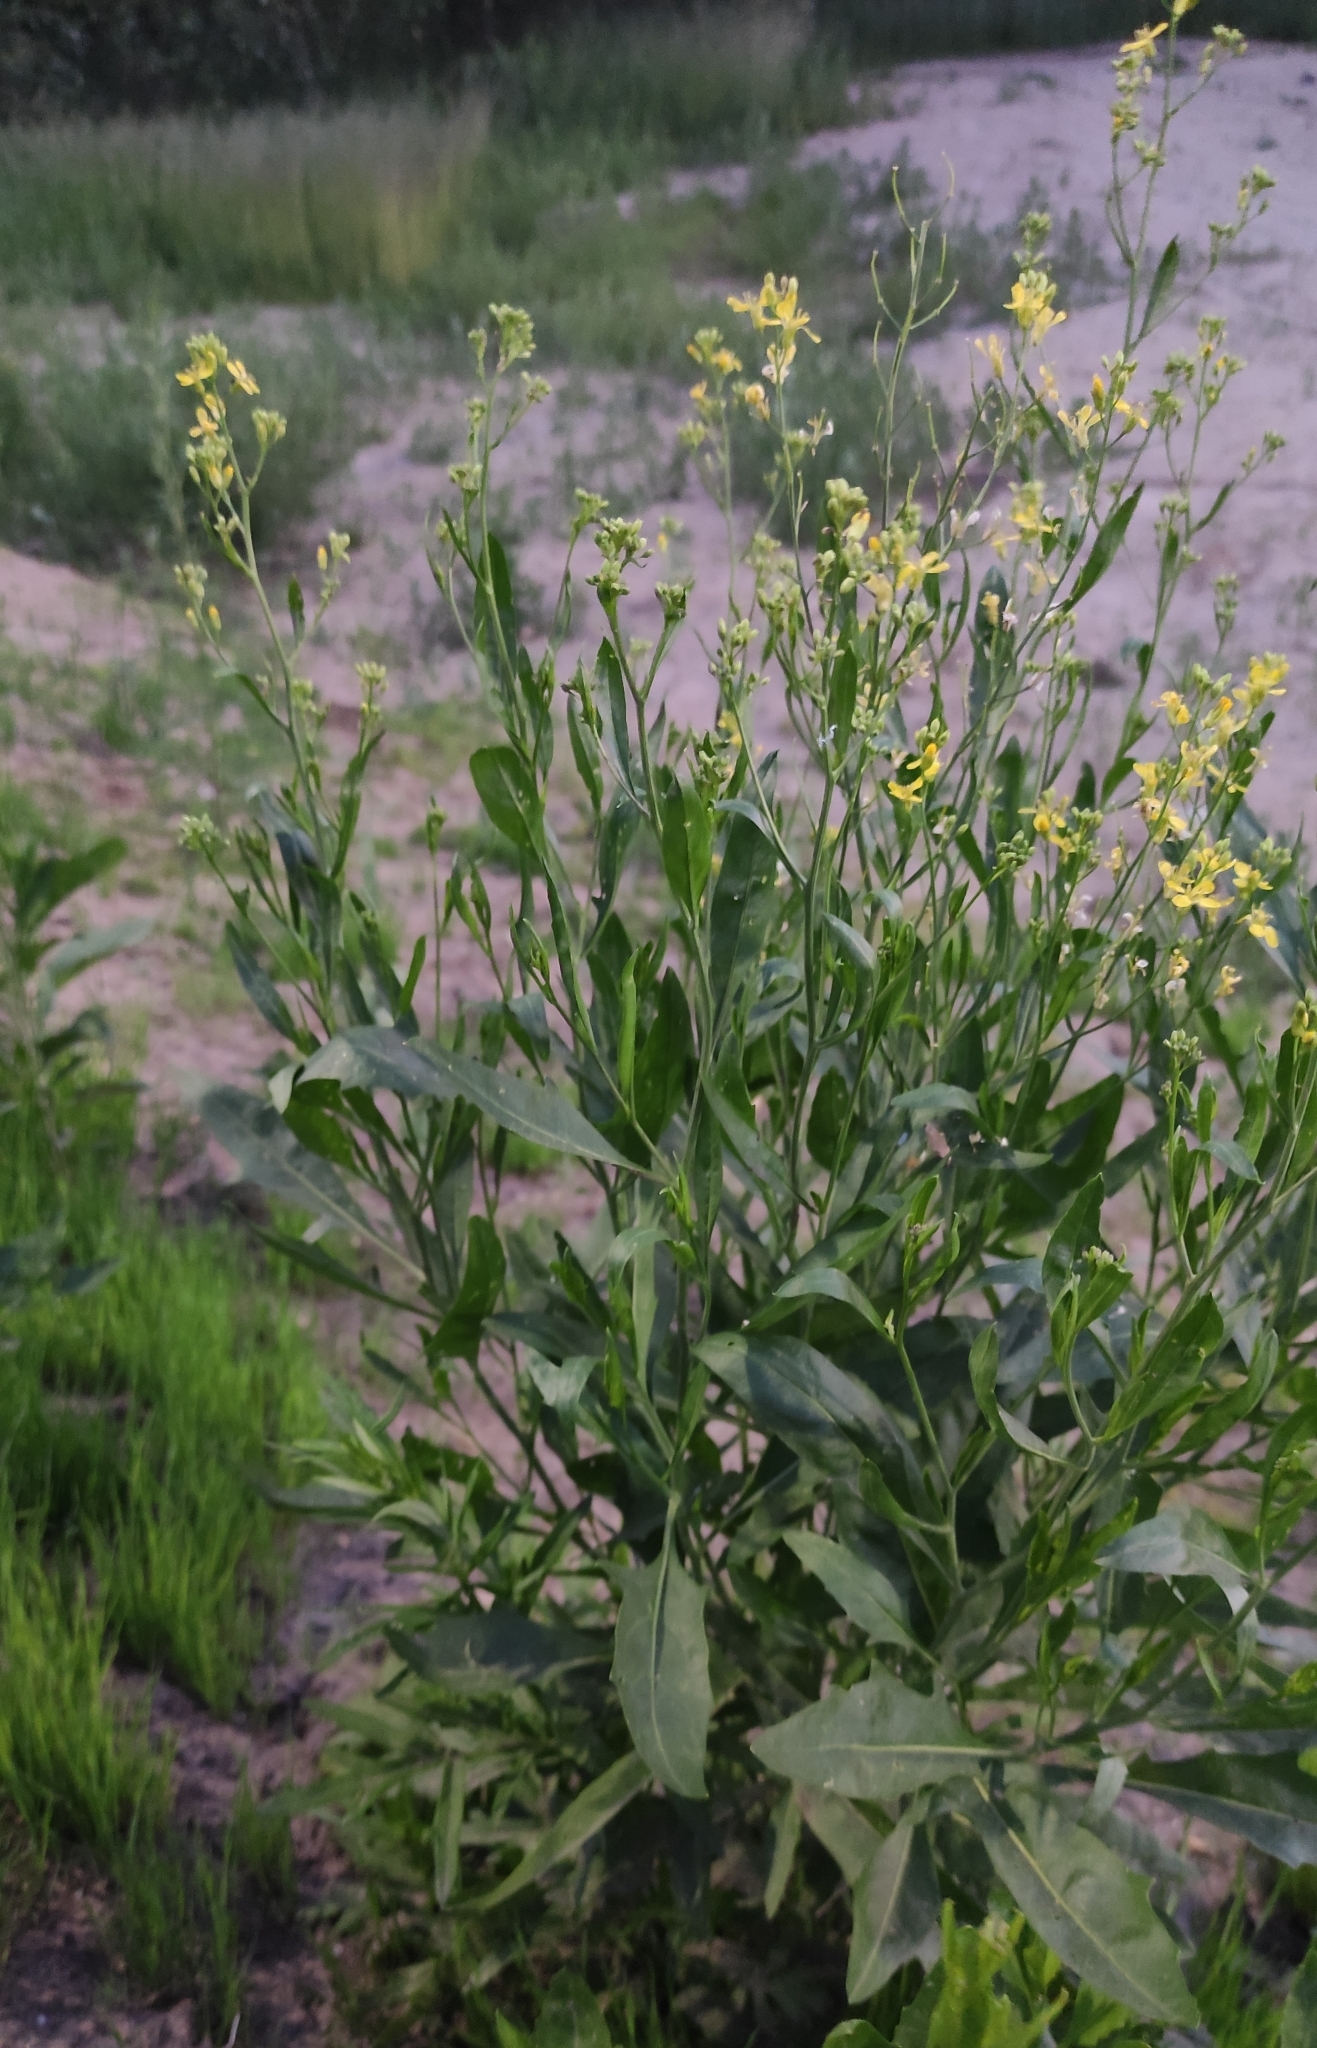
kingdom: Plantae
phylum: Tracheophyta
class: Magnoliopsida
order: Brassicales
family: Brassicaceae
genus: Sisymbrium
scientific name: Sisymbrium volgense
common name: Russian mustard
